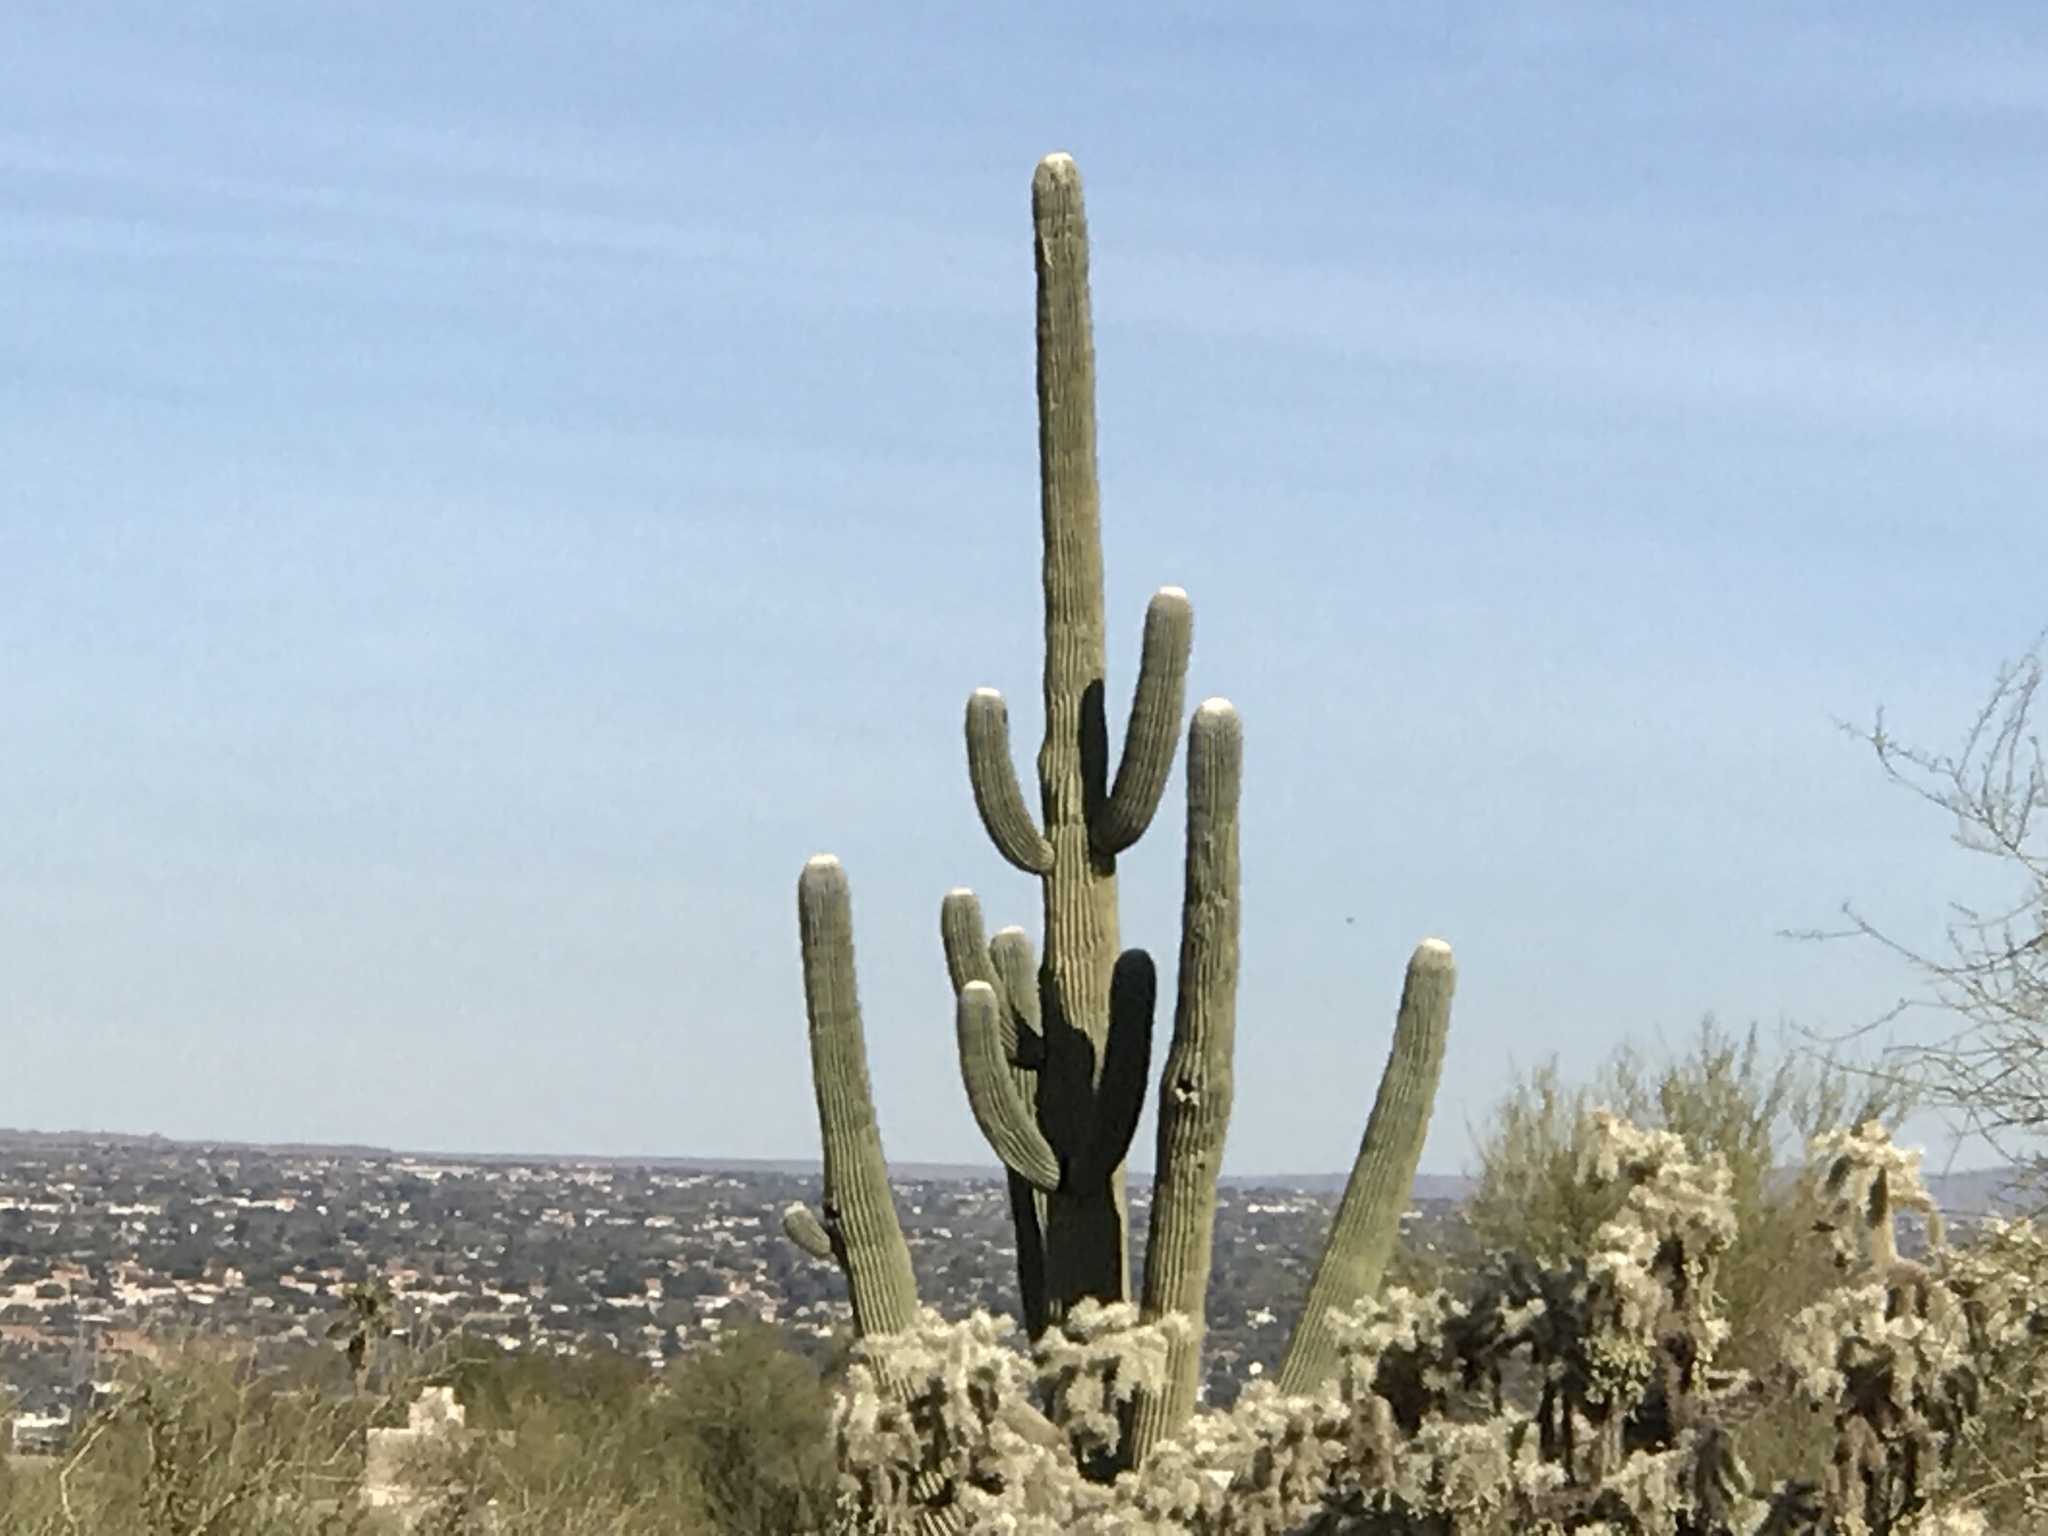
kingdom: Plantae
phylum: Tracheophyta
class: Magnoliopsida
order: Caryophyllales
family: Cactaceae
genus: Carnegiea
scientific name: Carnegiea gigantea
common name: Saguaro
